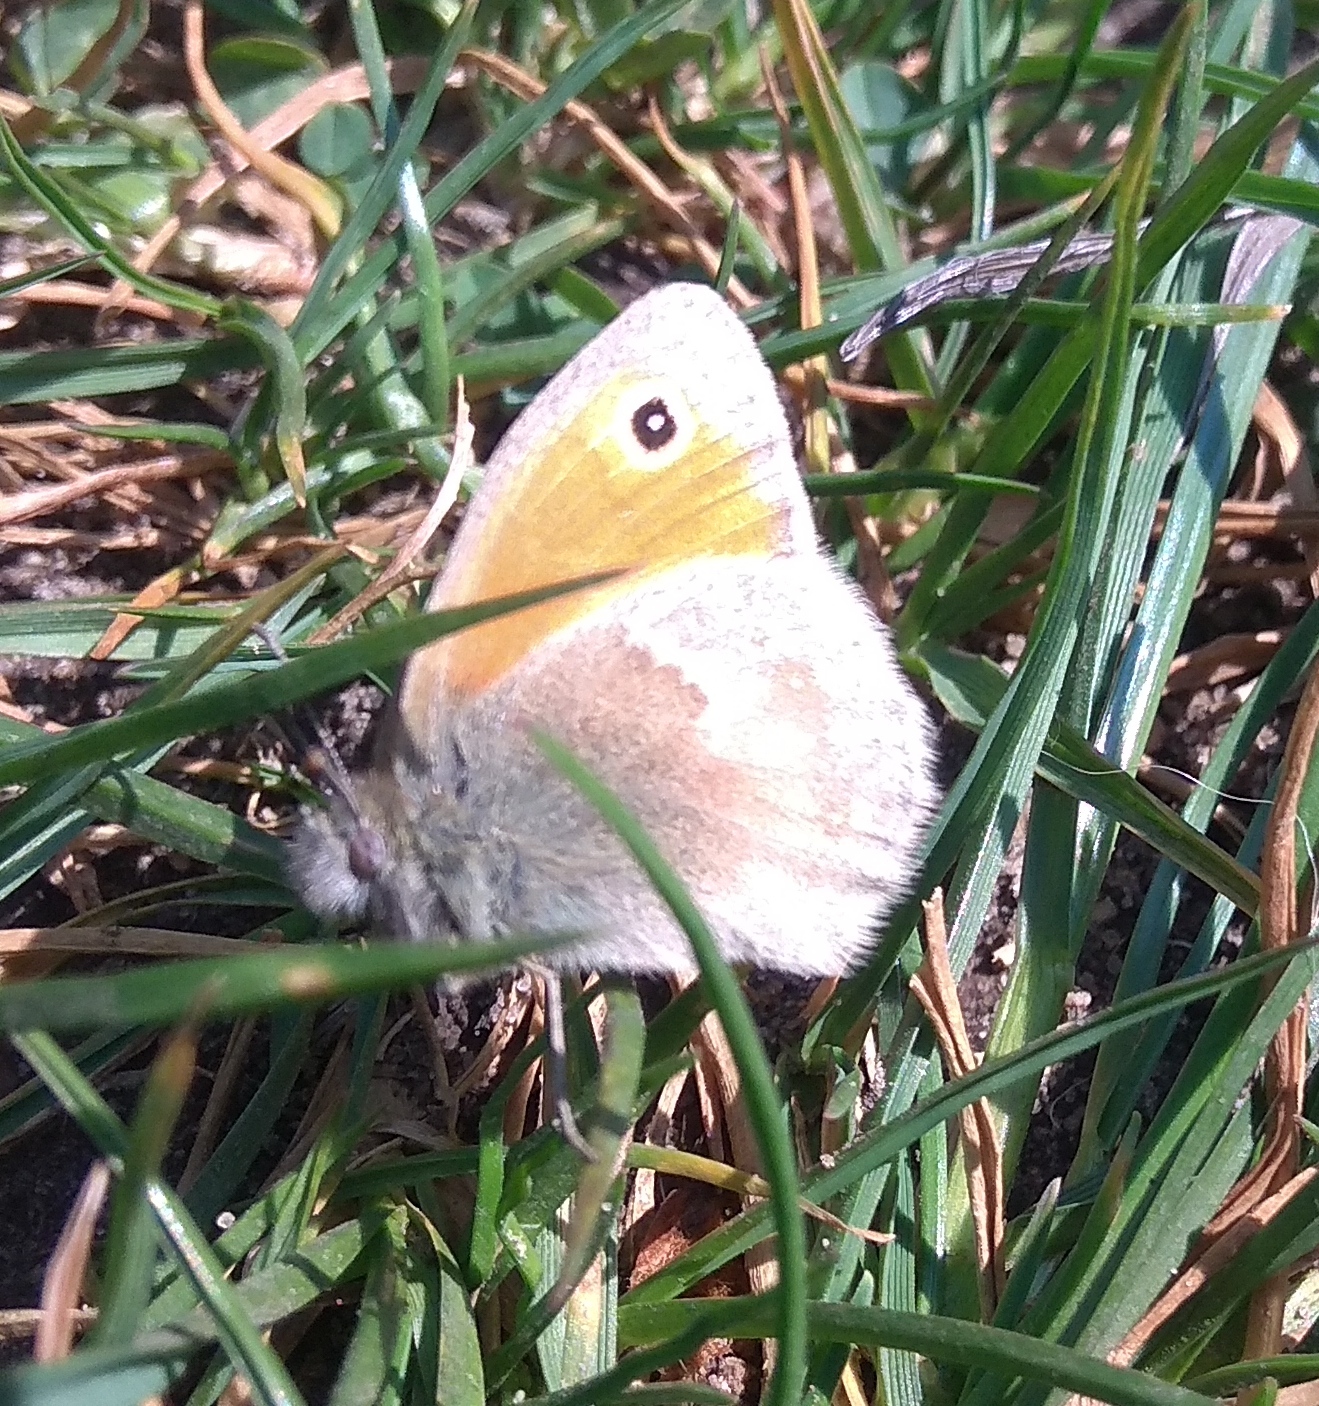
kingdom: Animalia
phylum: Arthropoda
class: Insecta
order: Lepidoptera
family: Nymphalidae
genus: Coenonympha
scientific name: Coenonympha pamphilus
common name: Small heath
